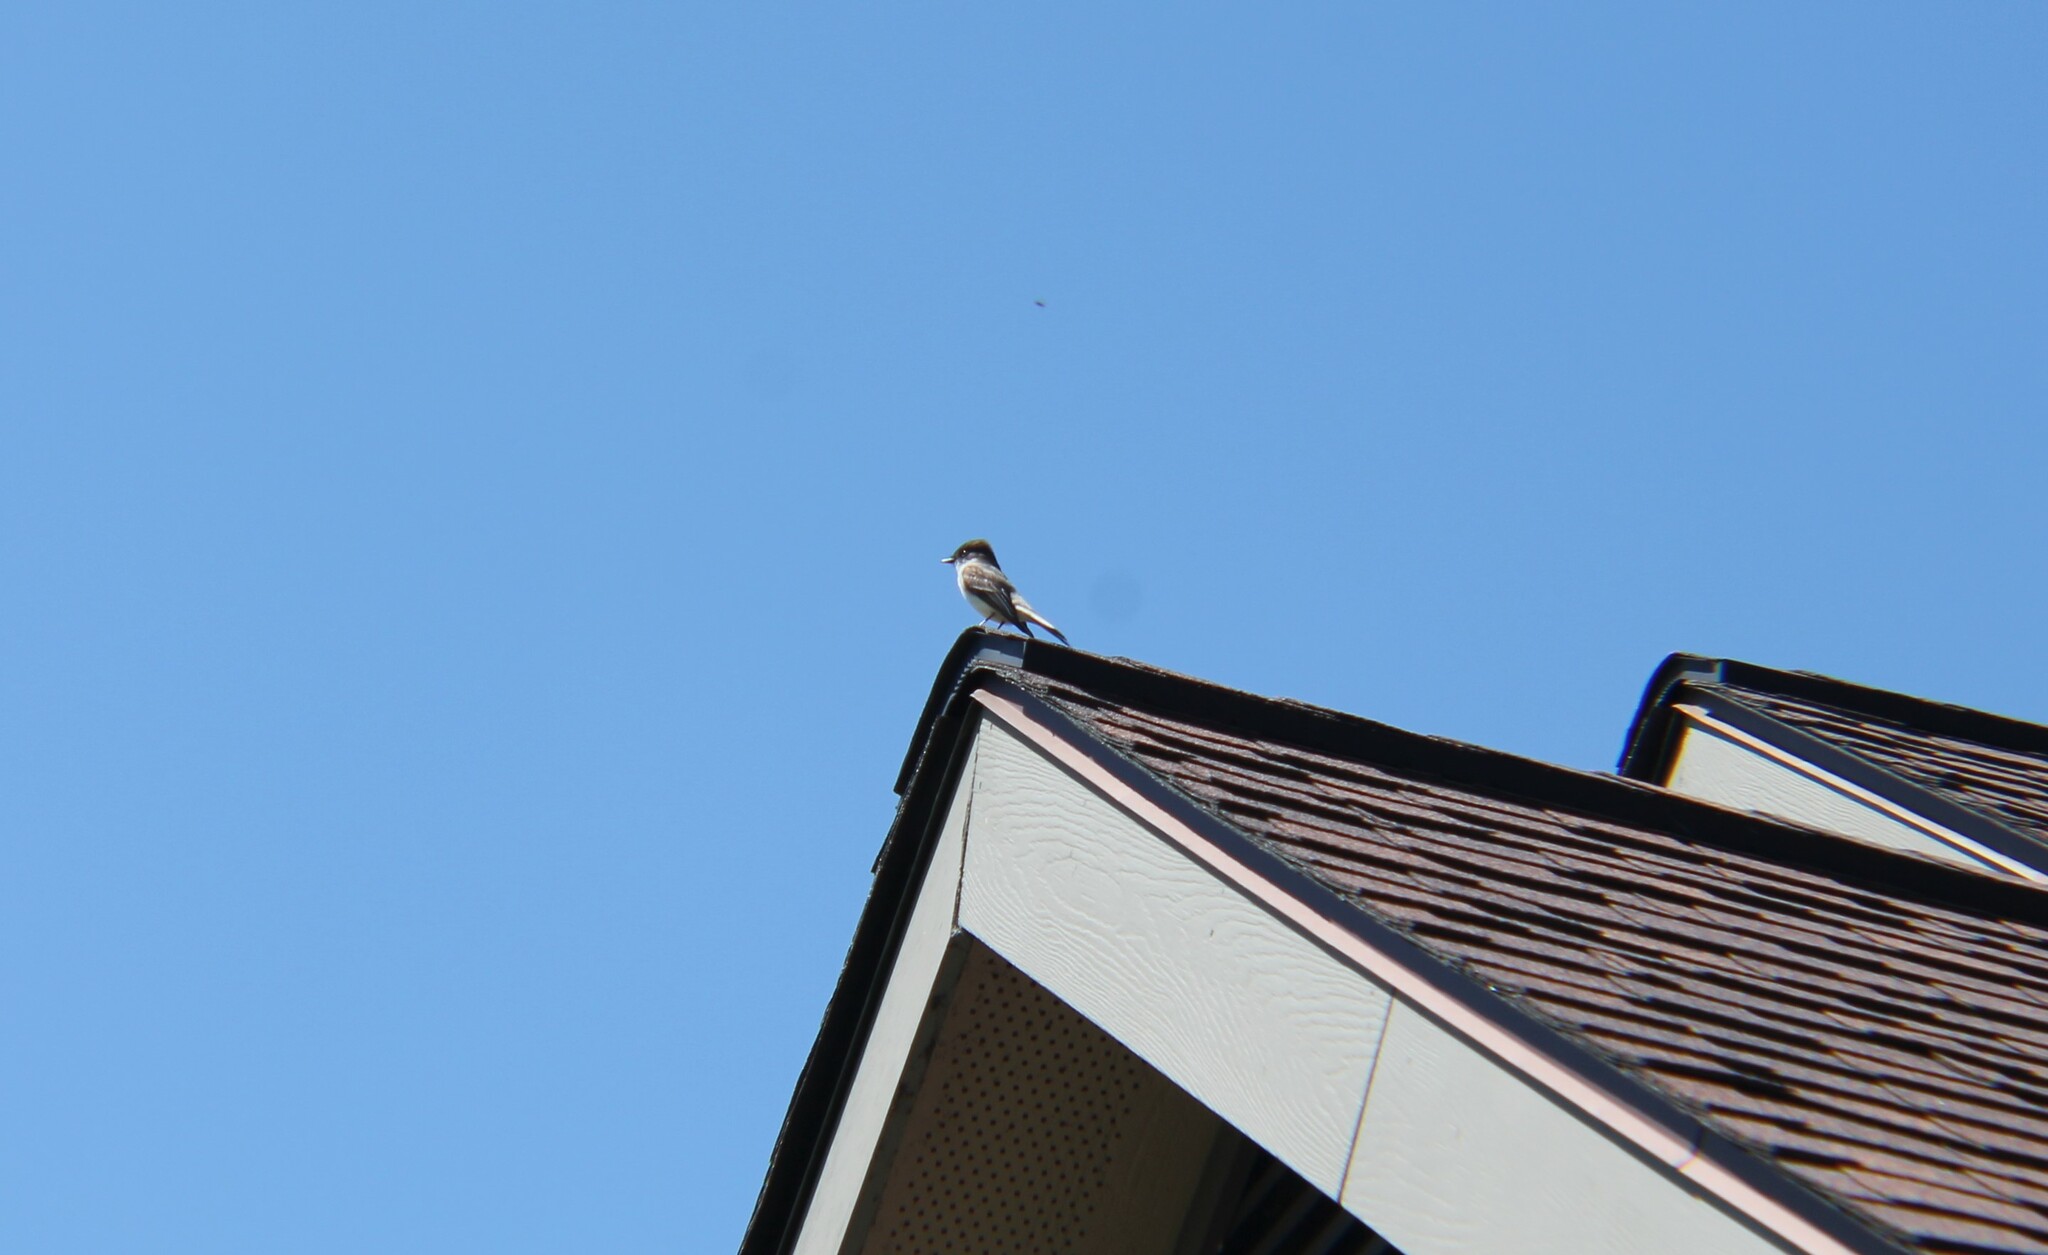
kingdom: Animalia
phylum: Chordata
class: Aves
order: Passeriformes
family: Tyrannidae
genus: Sayornis
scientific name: Sayornis phoebe
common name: Eastern phoebe
